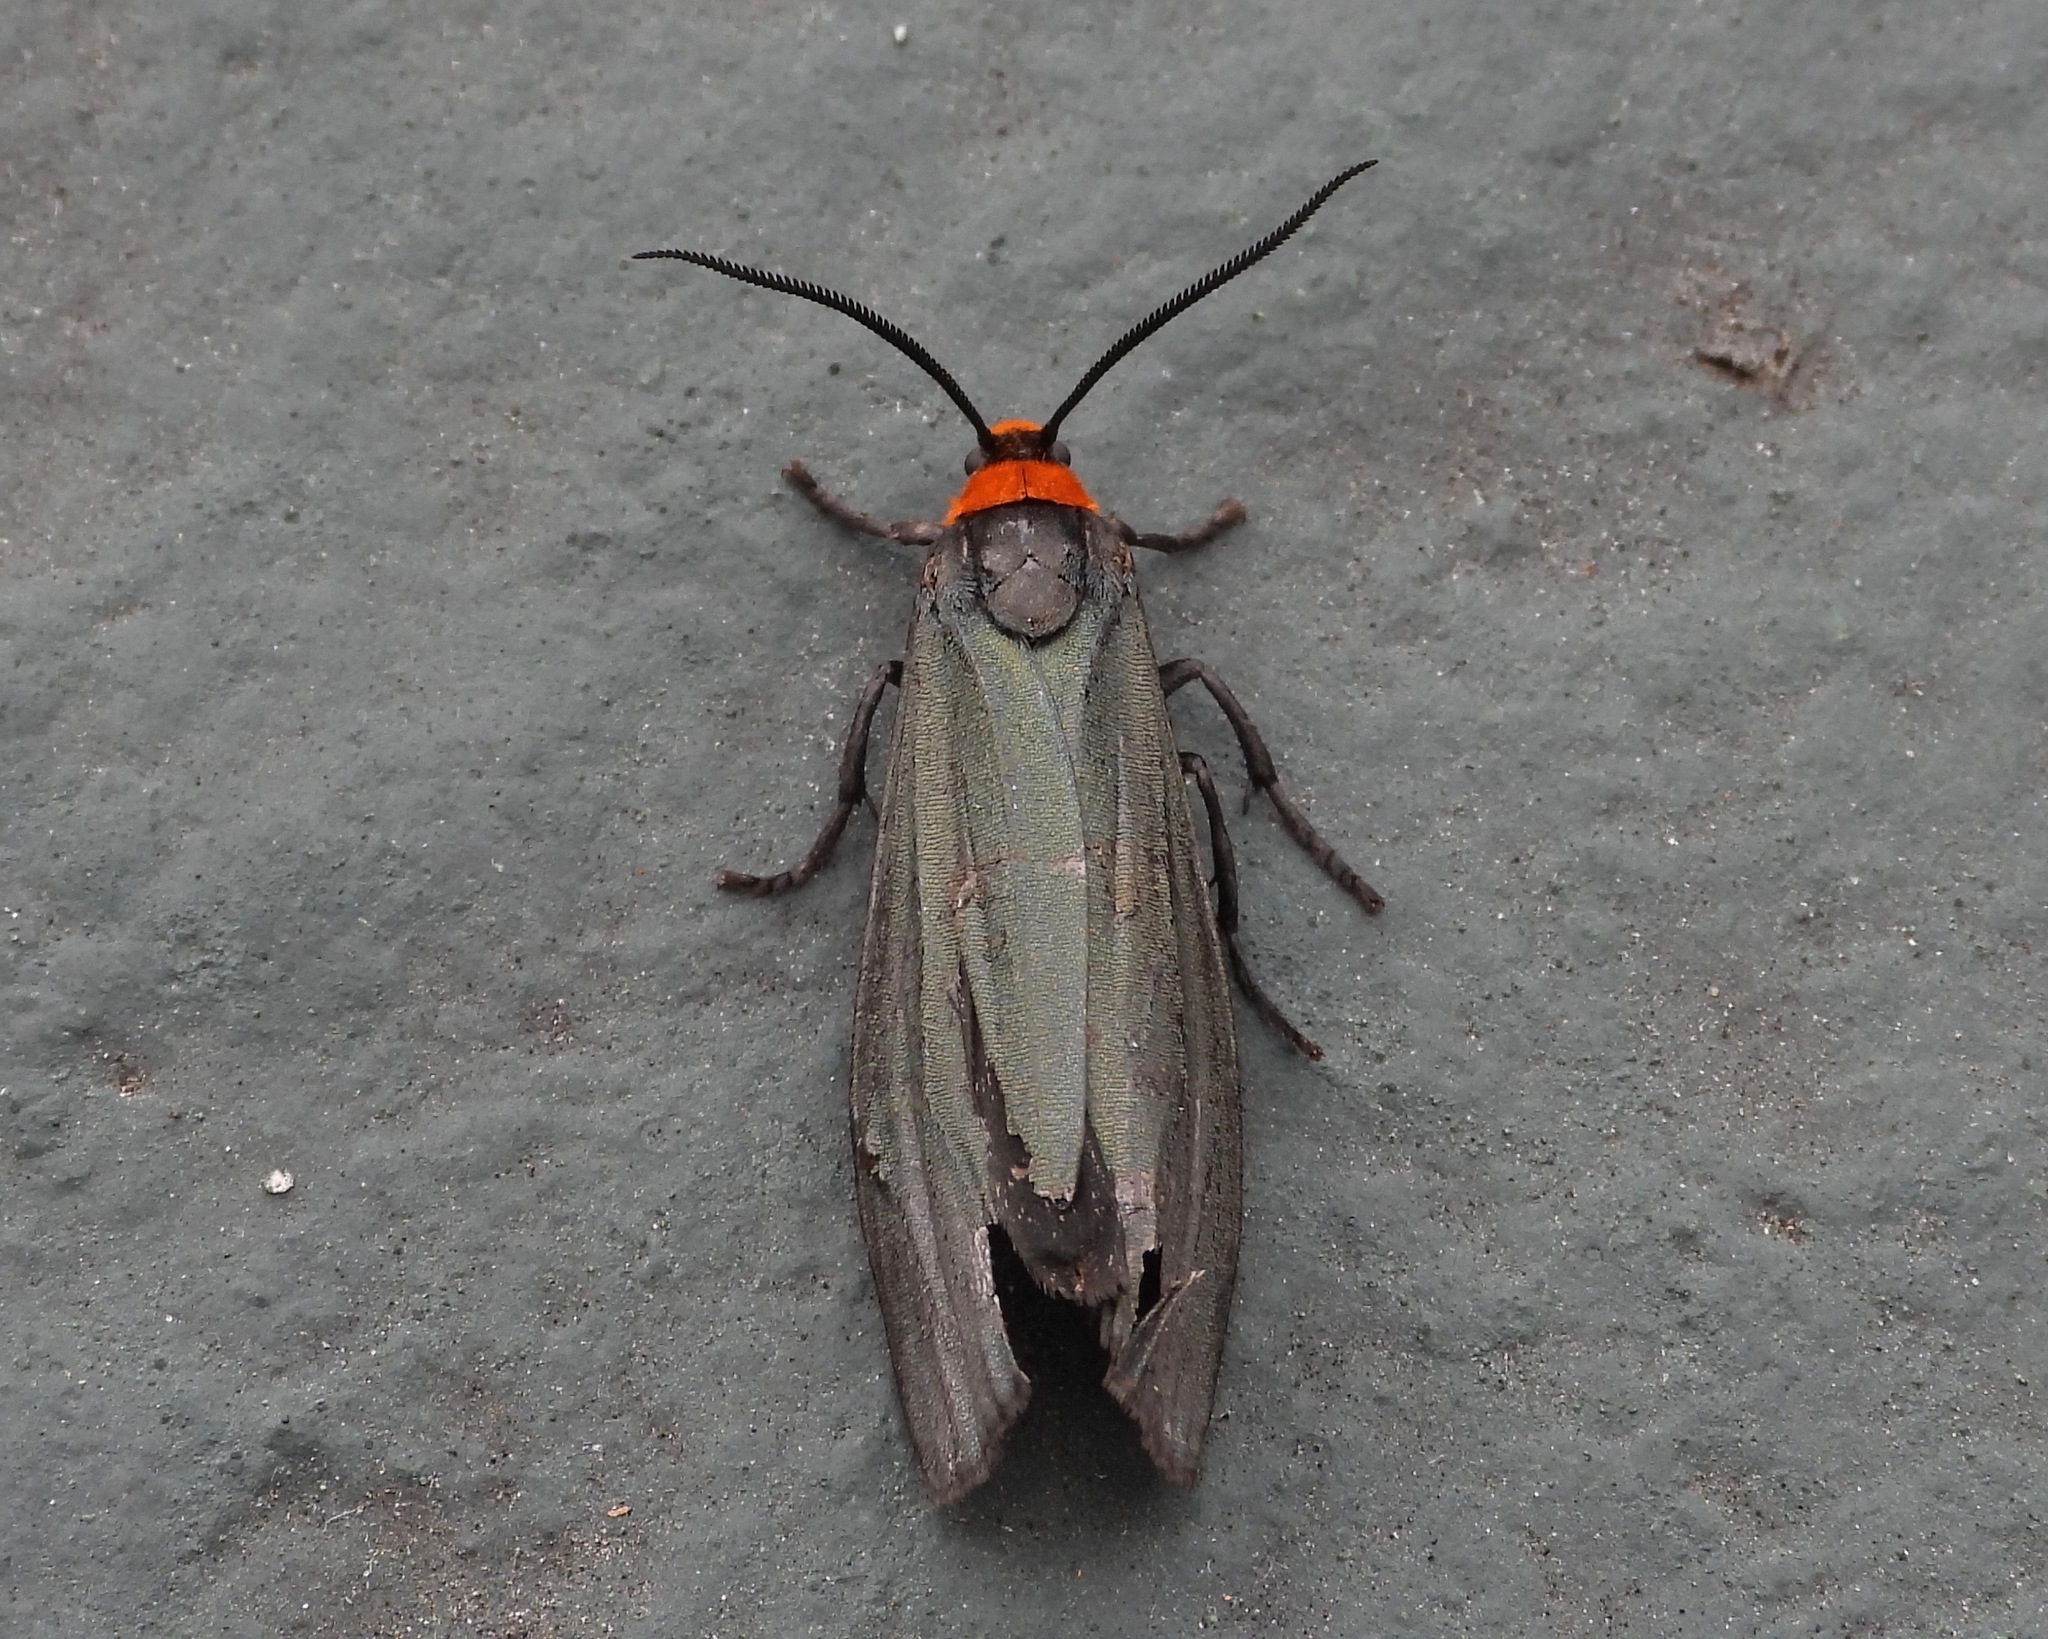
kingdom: Animalia
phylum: Arthropoda
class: Insecta
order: Lepidoptera
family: Erebidae
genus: Inopsis
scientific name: Inopsis modulata
